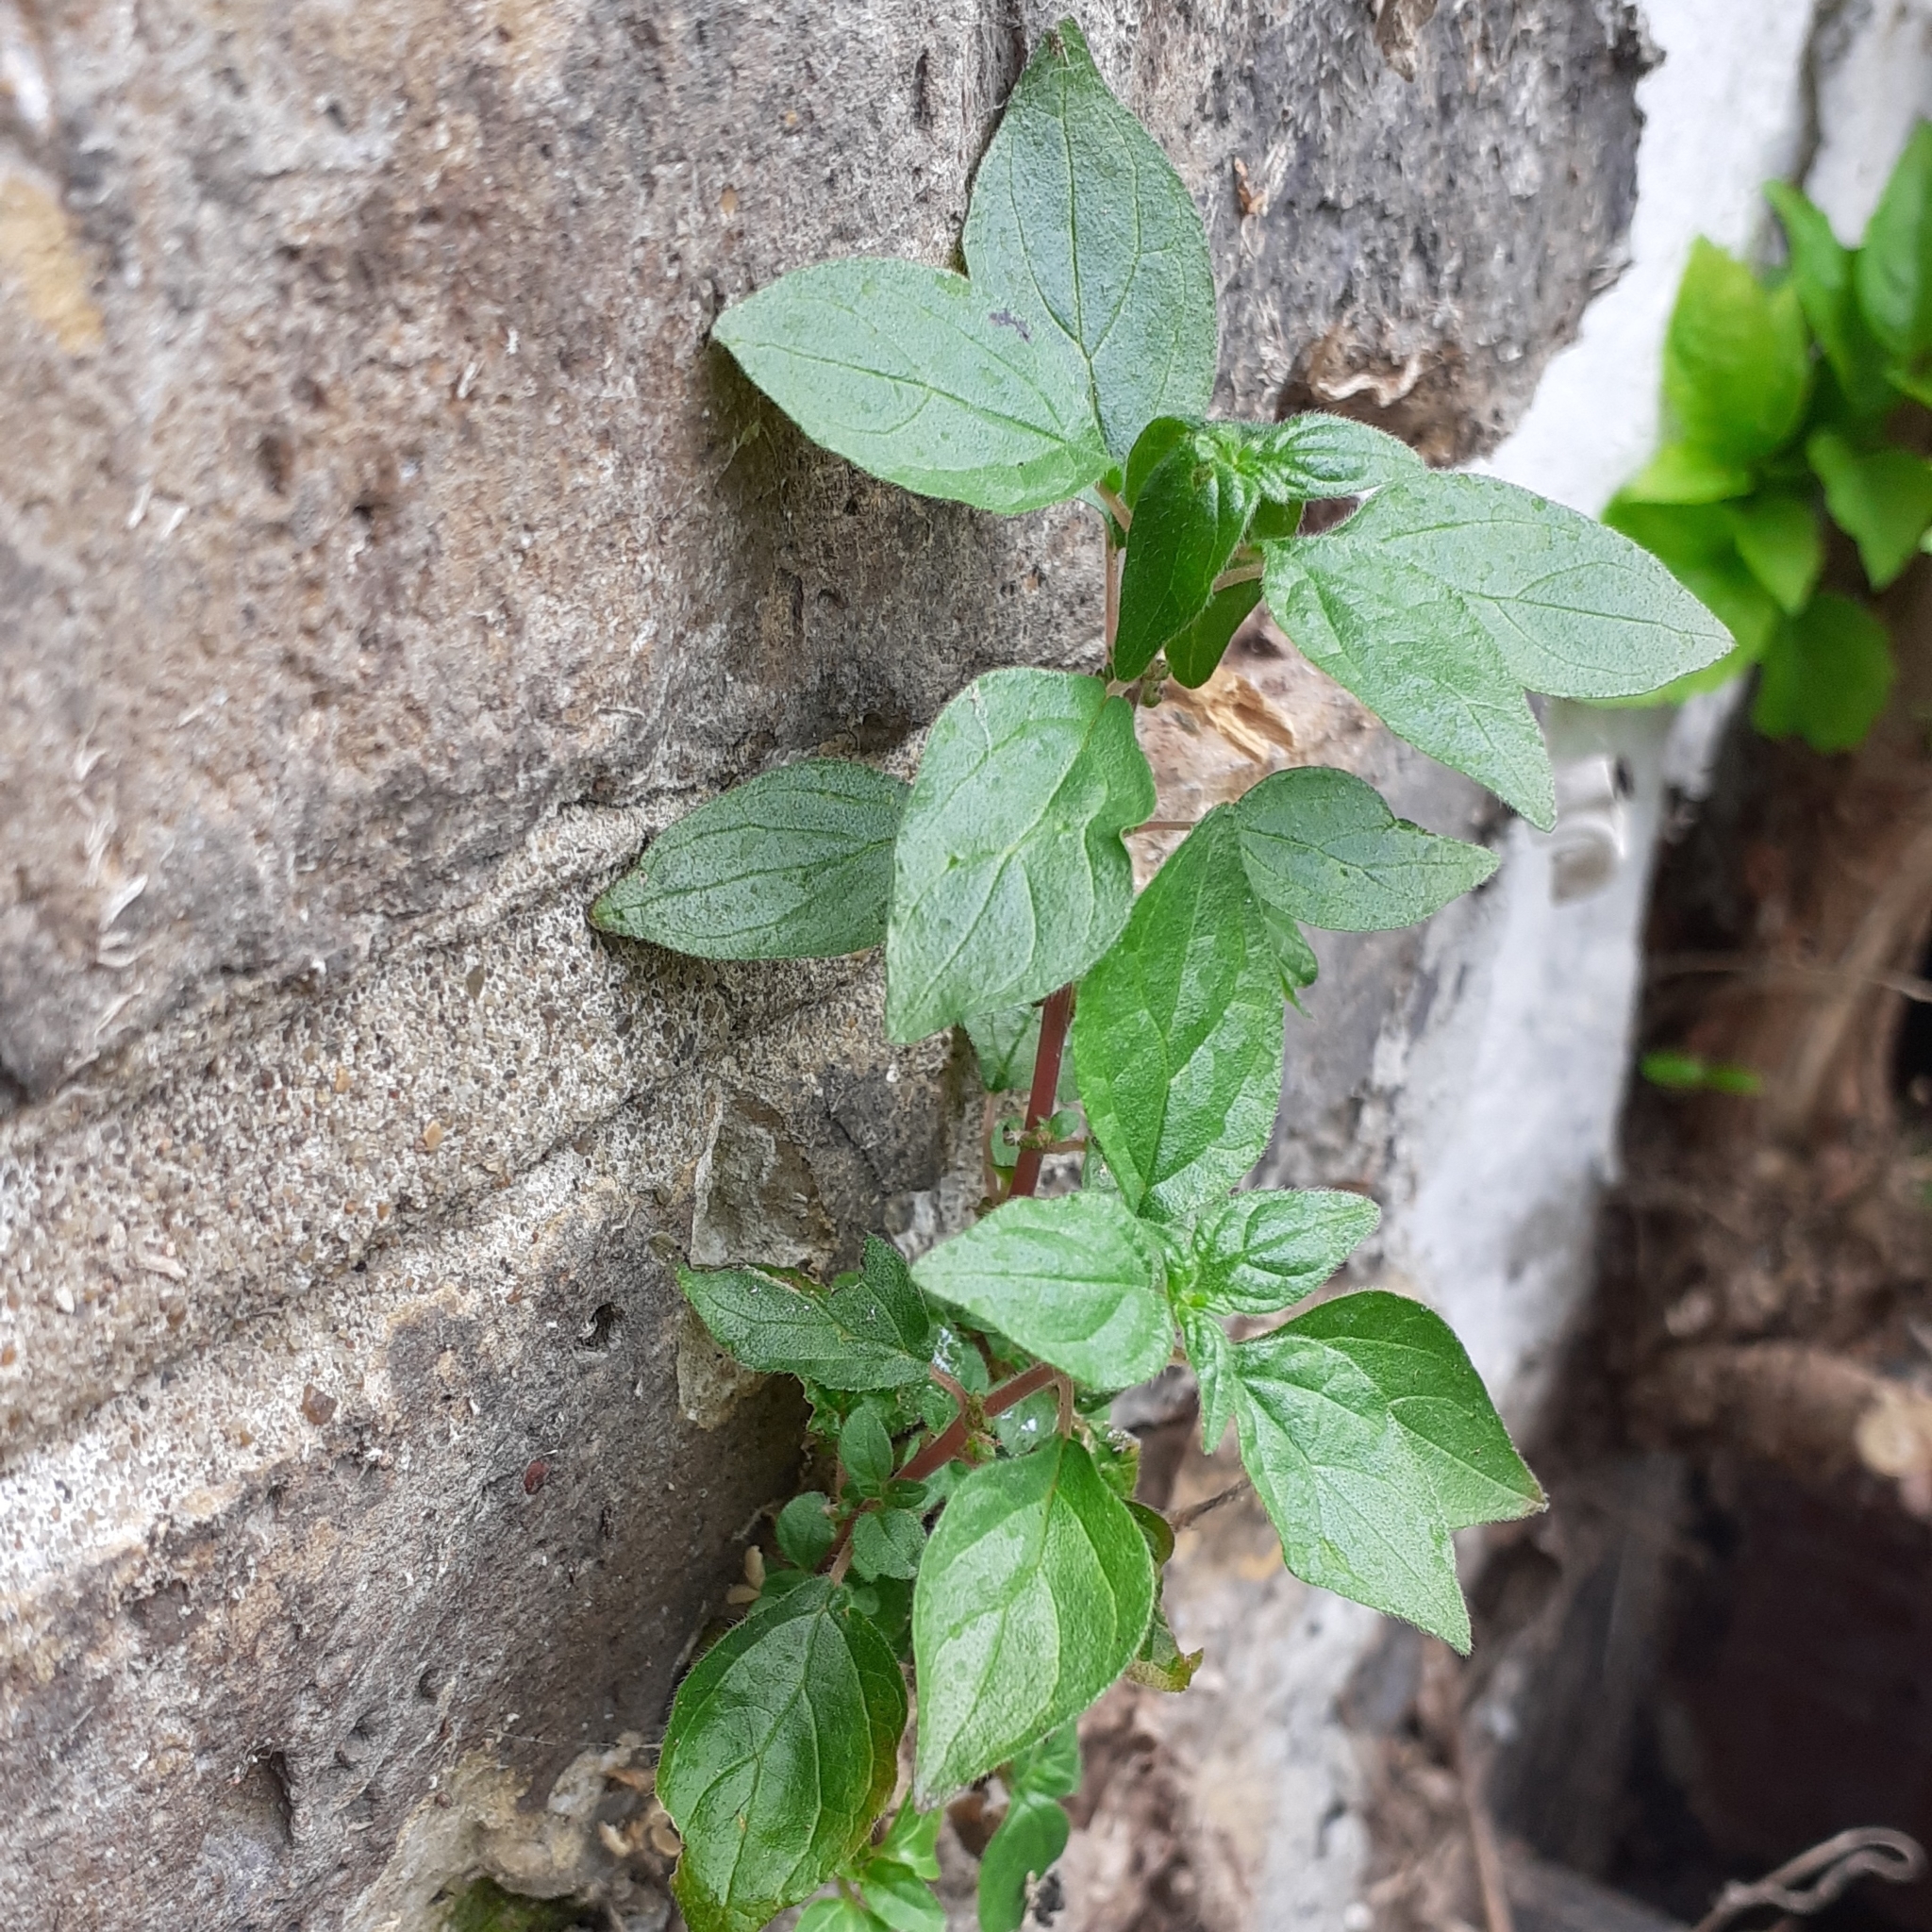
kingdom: Plantae
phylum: Tracheophyta
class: Magnoliopsida
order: Rosales
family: Urticaceae
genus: Parietaria
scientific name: Parietaria judaica
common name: Pellitory-of-the-wall
